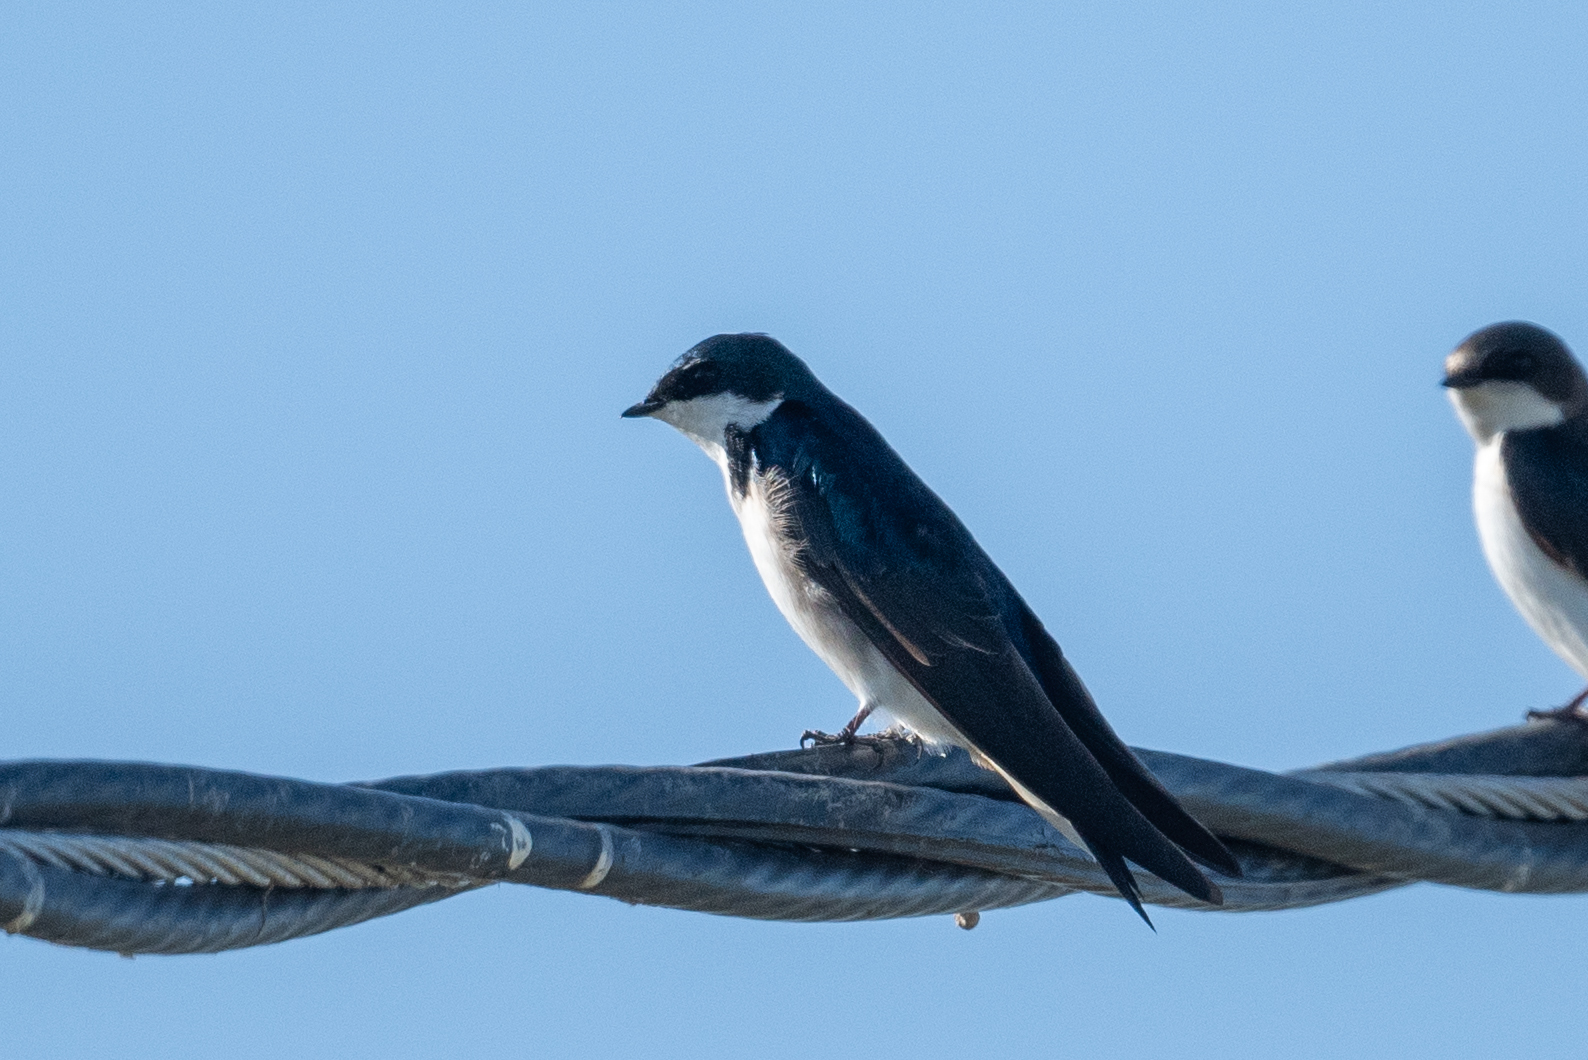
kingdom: Animalia
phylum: Chordata
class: Aves
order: Passeriformes
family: Hirundinidae
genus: Tachycineta
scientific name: Tachycineta bicolor
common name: Tree swallow
